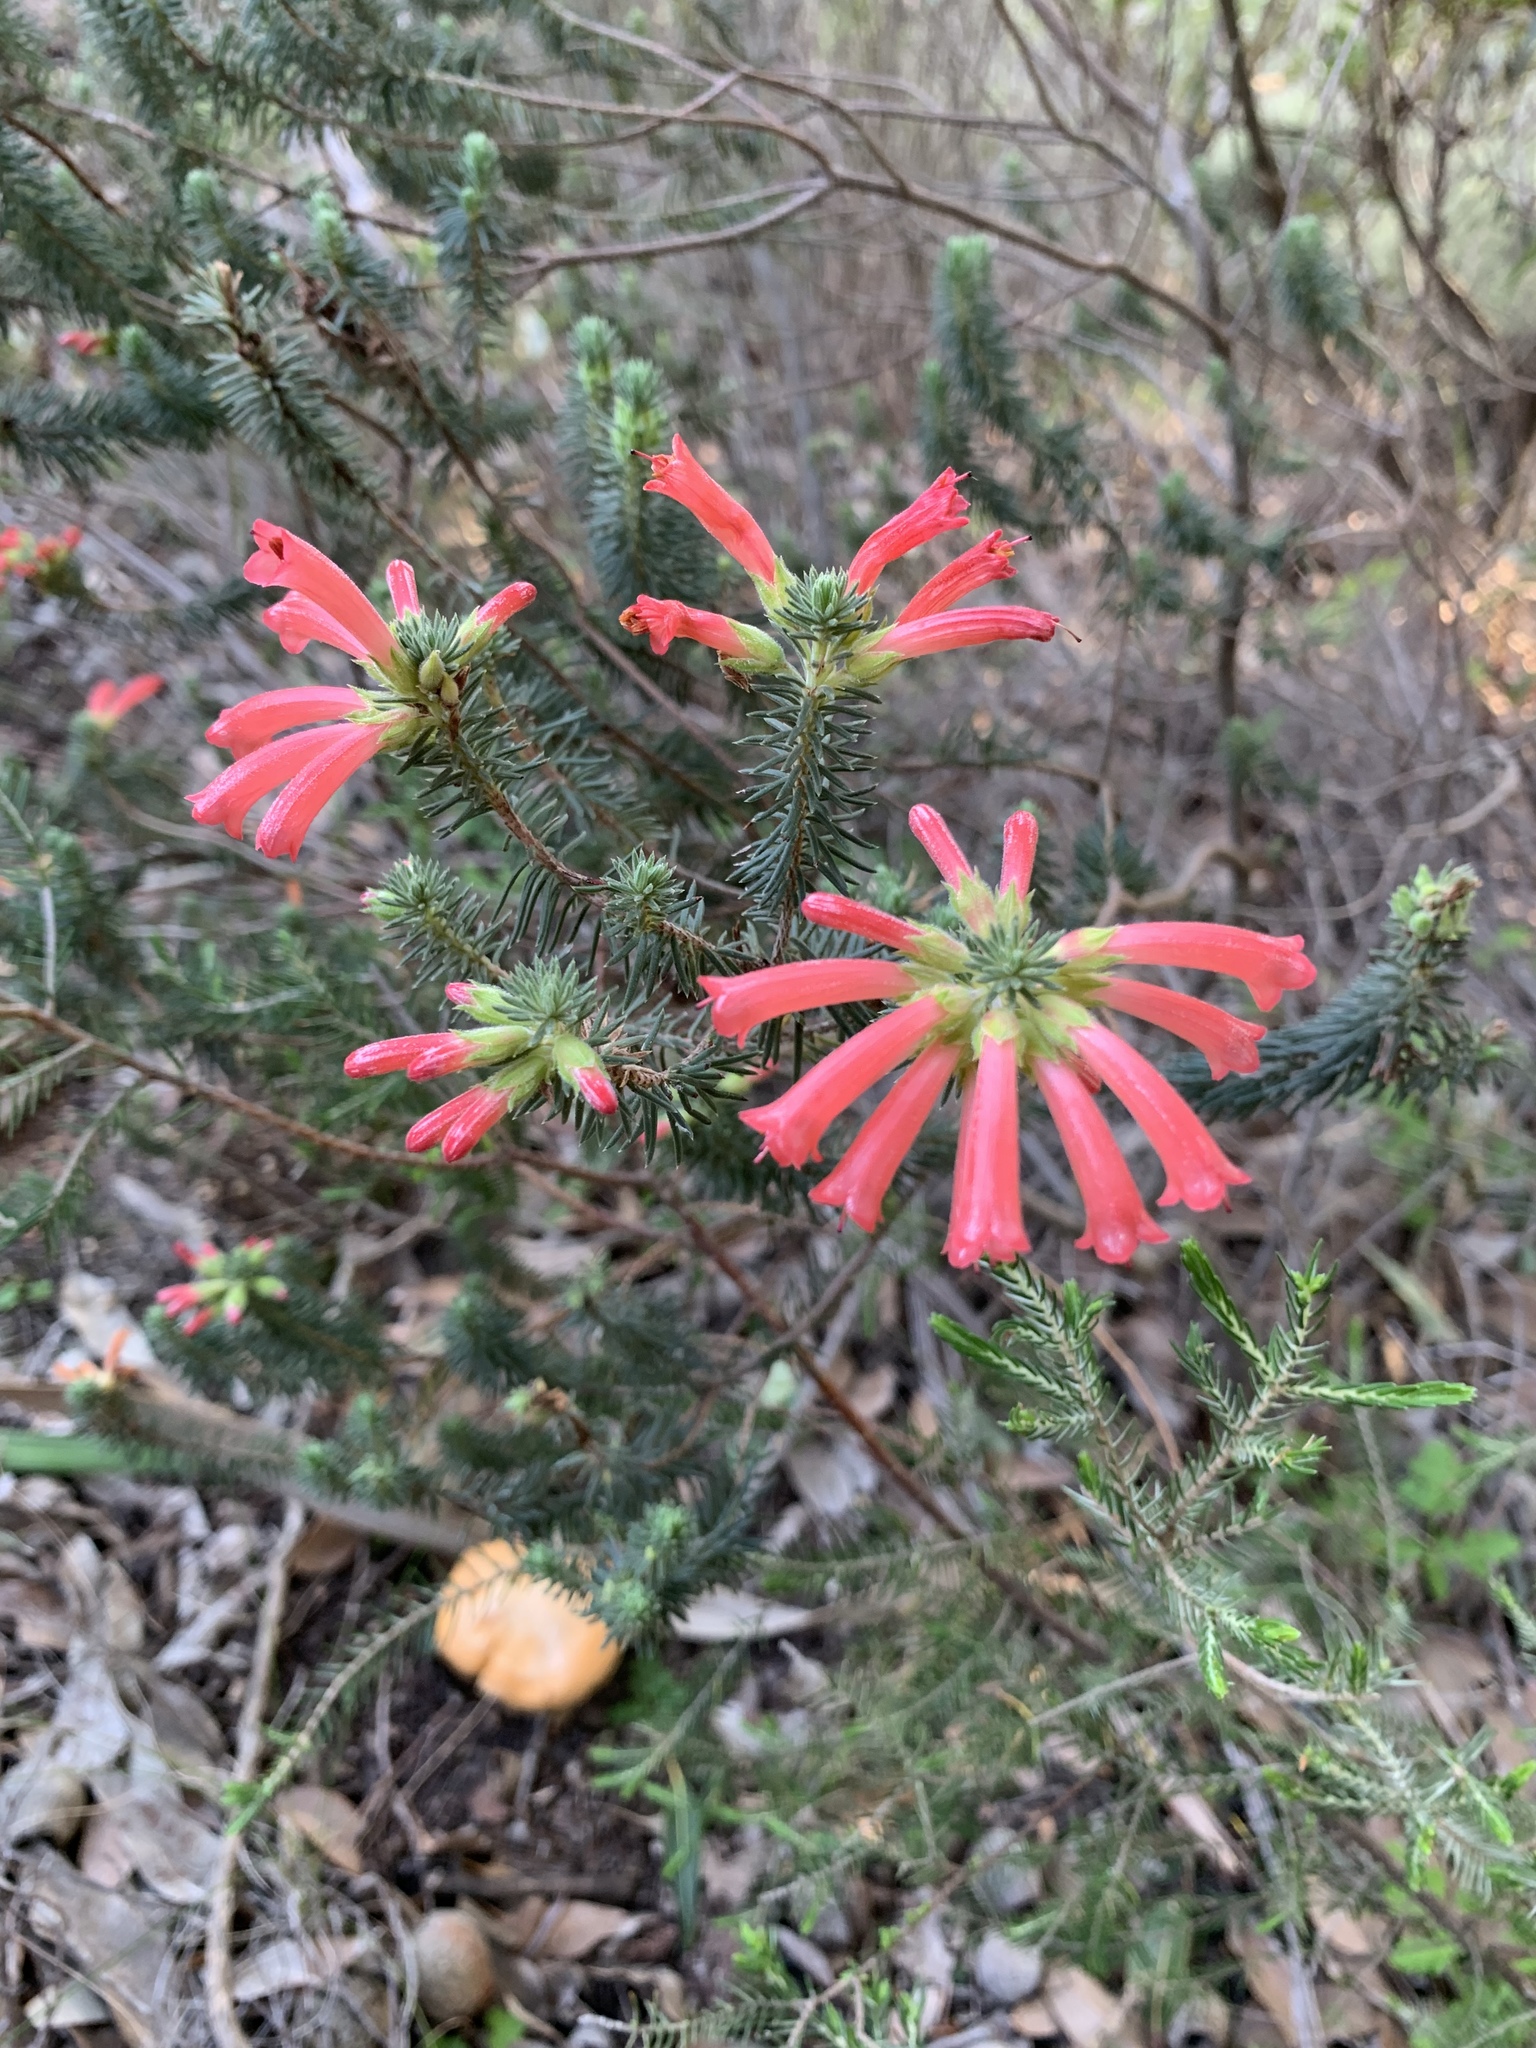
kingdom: Plantae
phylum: Tracheophyta
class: Magnoliopsida
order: Ericales
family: Ericaceae
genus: Erica
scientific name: Erica abietina
